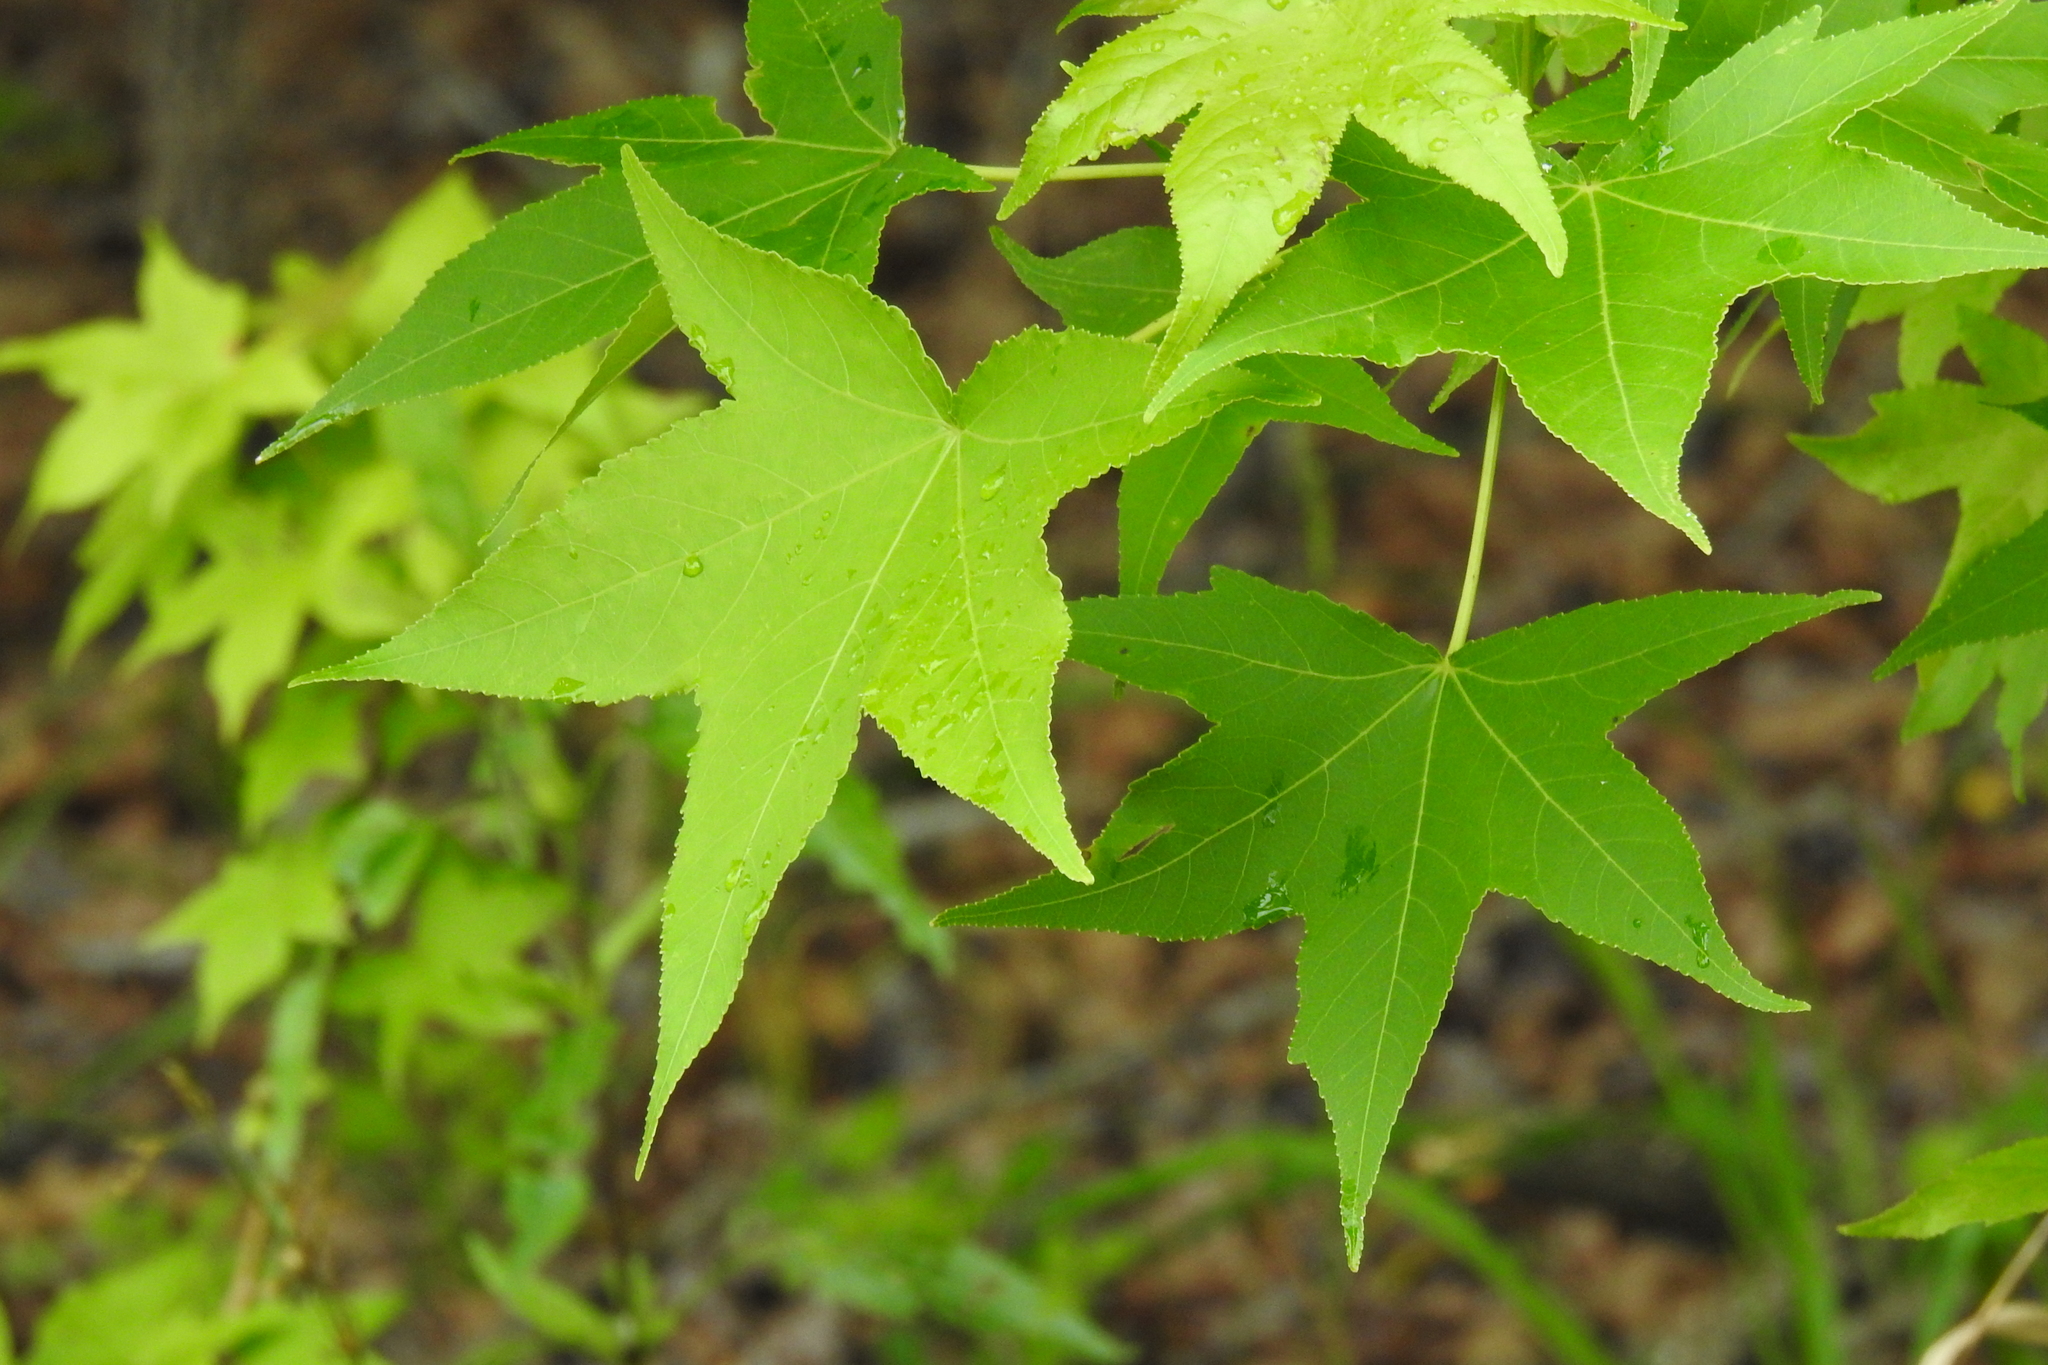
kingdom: Plantae
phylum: Tracheophyta
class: Magnoliopsida
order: Saxifragales
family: Altingiaceae
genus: Liquidambar
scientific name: Liquidambar styraciflua
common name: Sweet gum
